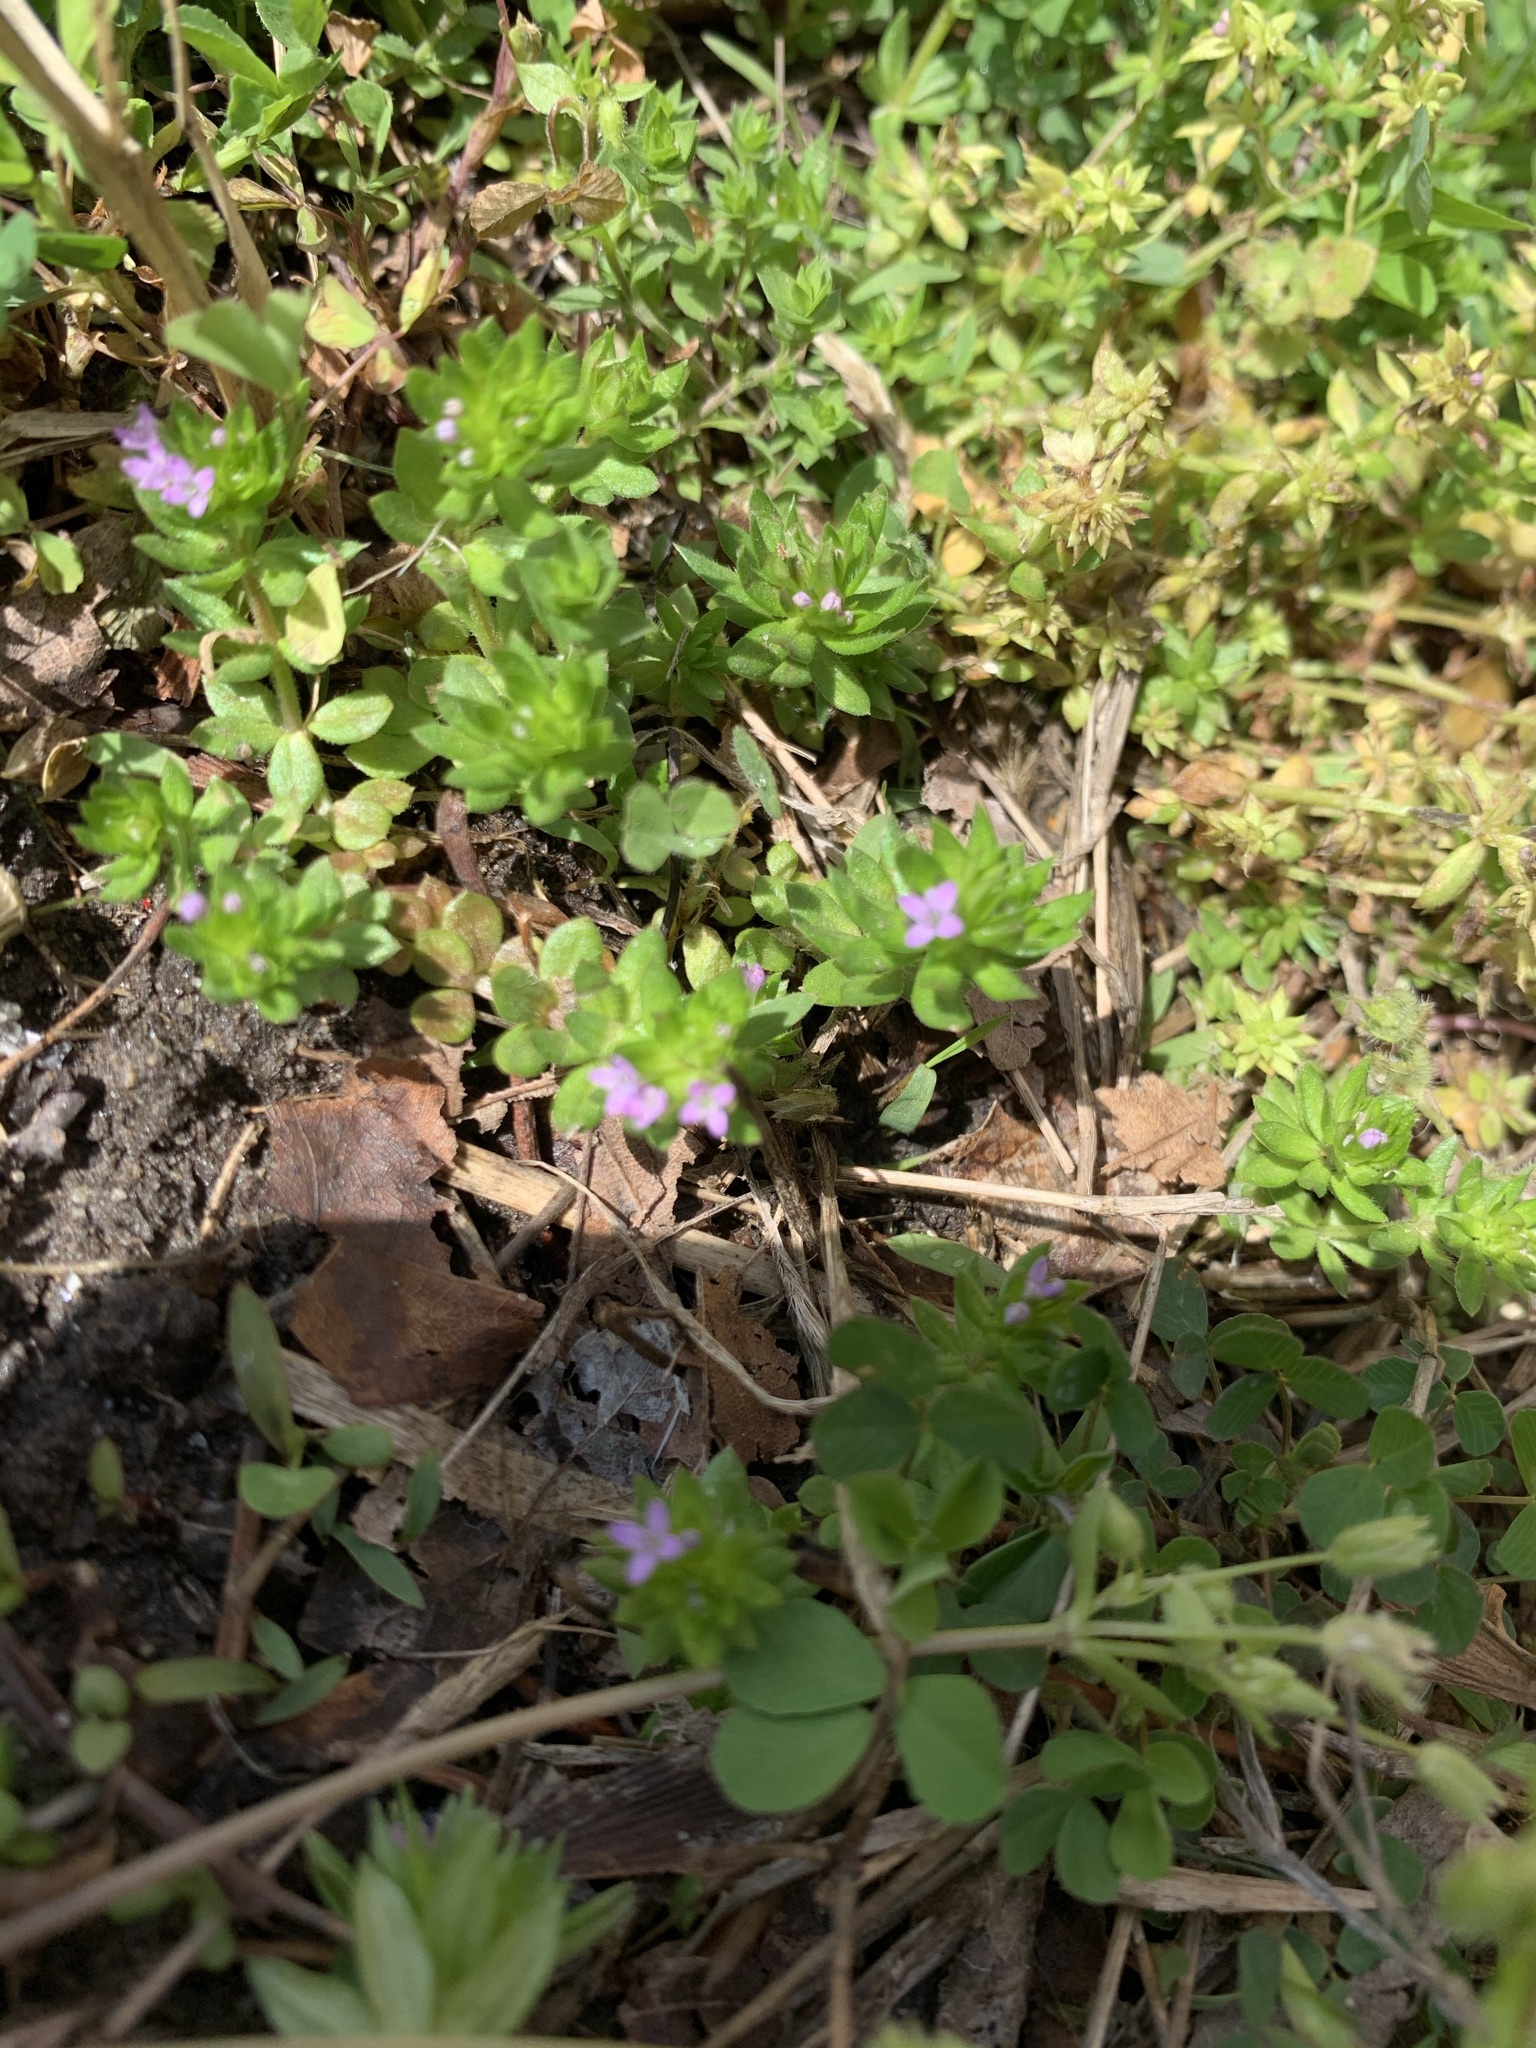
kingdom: Plantae
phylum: Tracheophyta
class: Magnoliopsida
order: Gentianales
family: Rubiaceae
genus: Sherardia
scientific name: Sherardia arvensis
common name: Field madder
